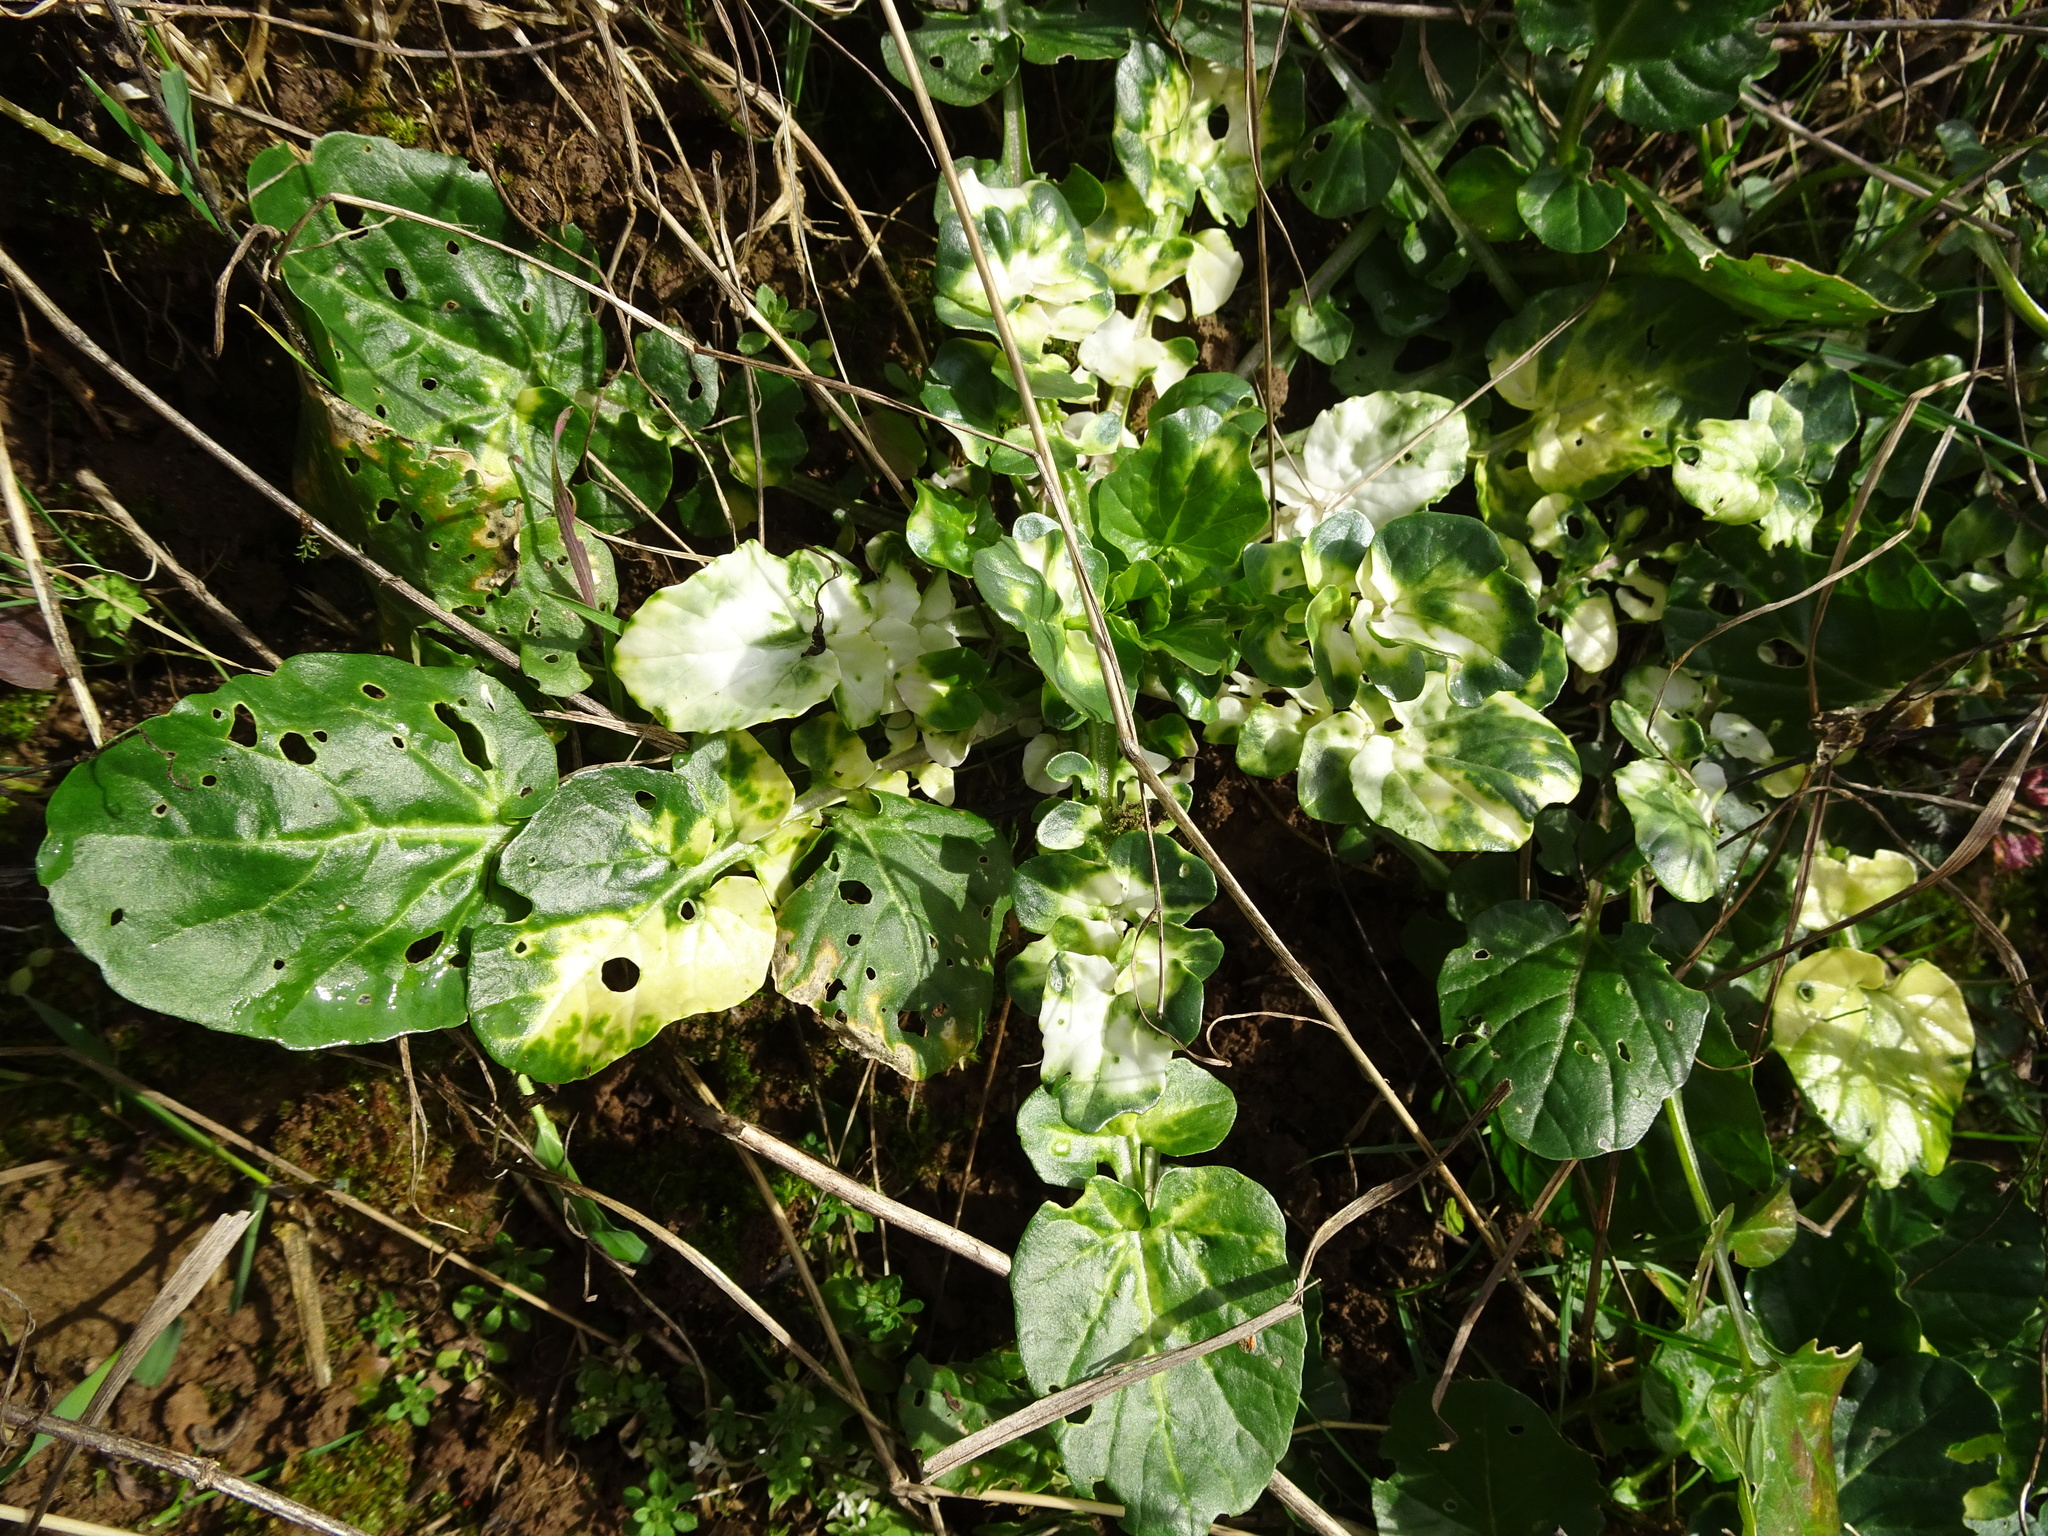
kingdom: Plantae
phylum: Tracheophyta
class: Magnoliopsida
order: Brassicales
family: Brassicaceae
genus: Barbarea
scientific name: Barbarea vulgaris
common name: Cressy-greens
